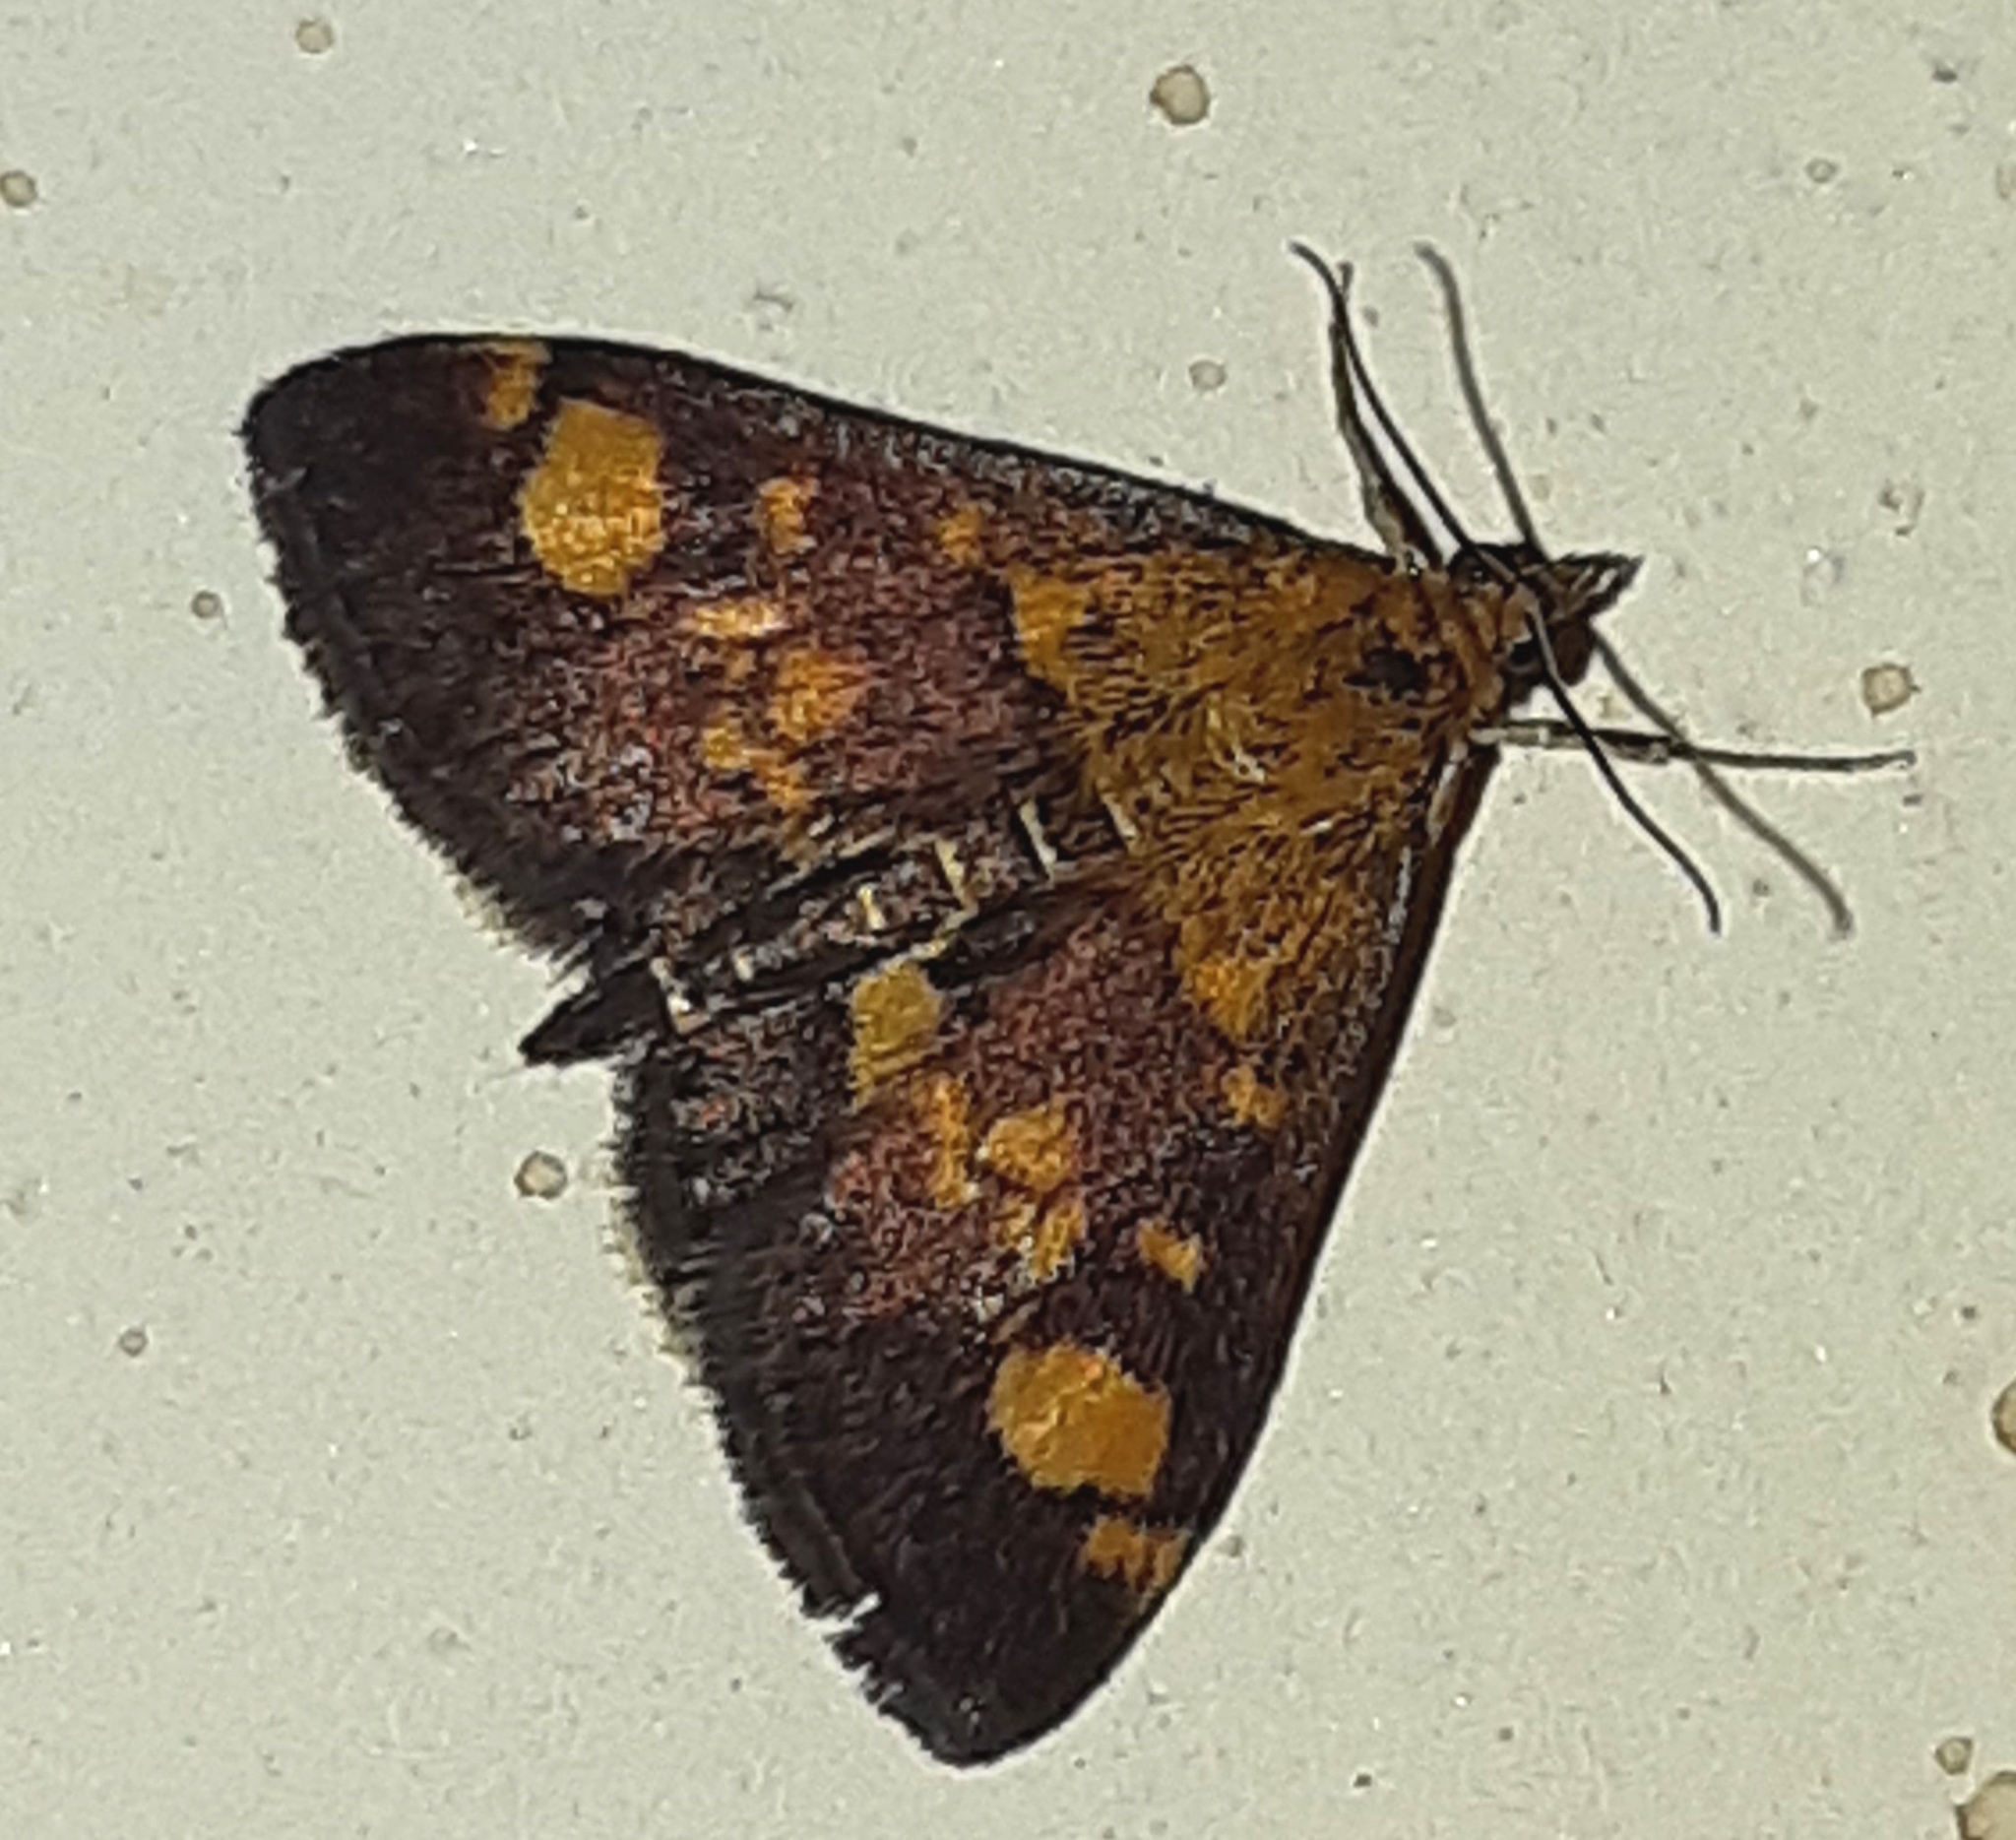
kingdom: Animalia
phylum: Arthropoda
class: Insecta
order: Lepidoptera
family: Crambidae
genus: Pyrausta
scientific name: Pyrausta aurata
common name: Small purple & gold
